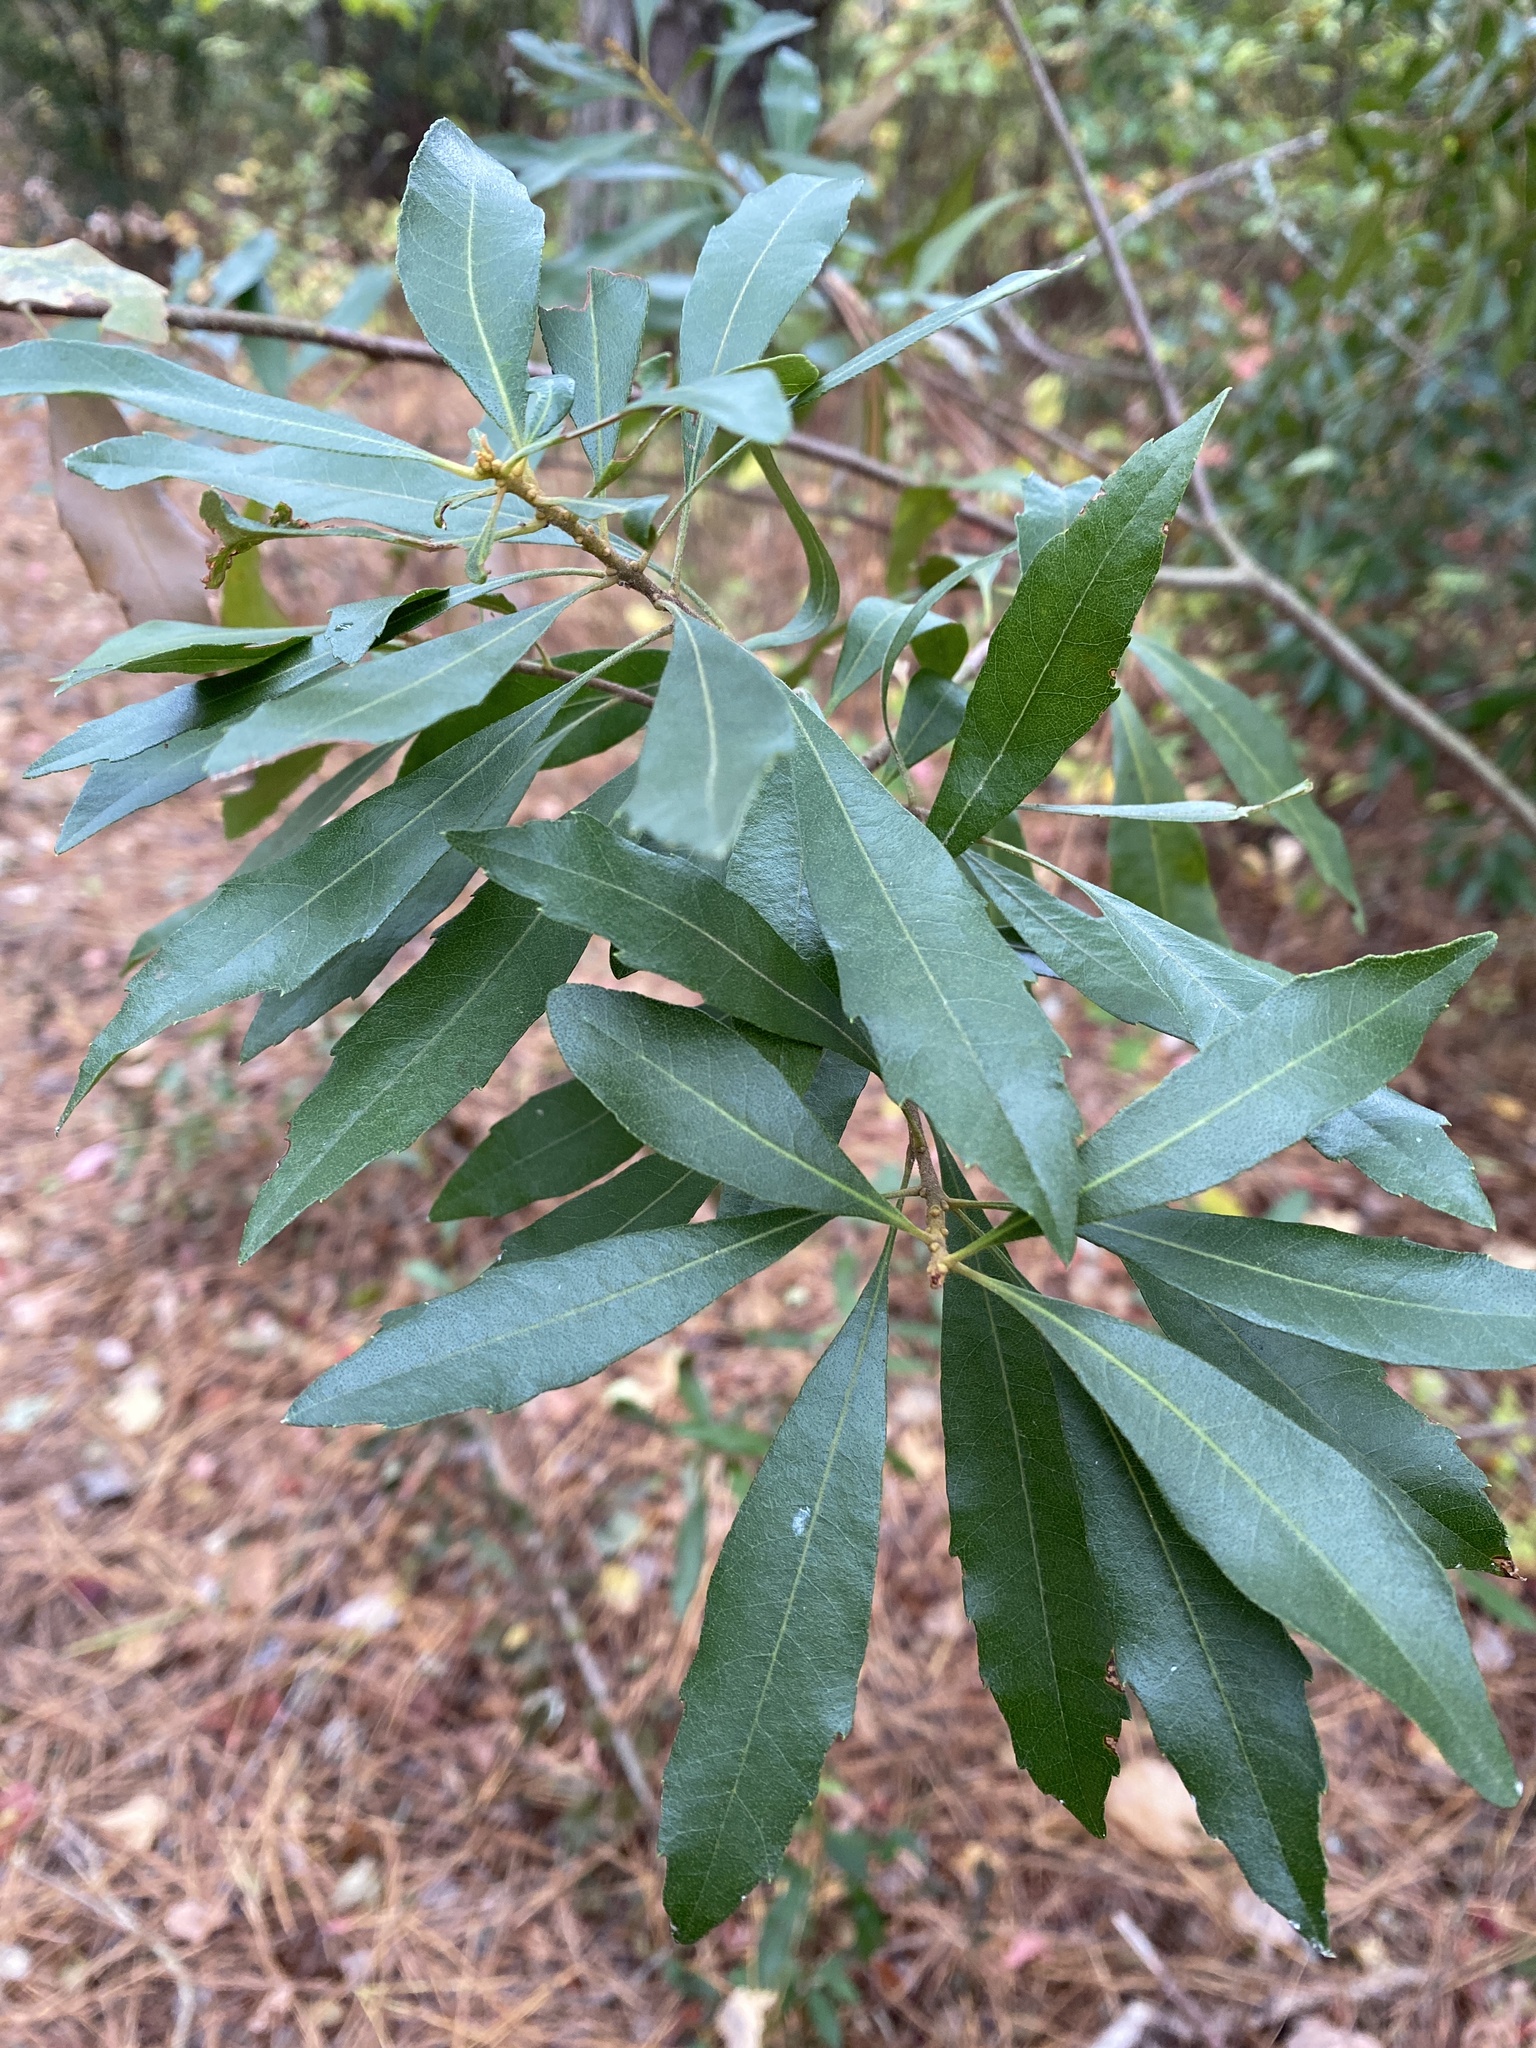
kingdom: Plantae
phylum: Tracheophyta
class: Magnoliopsida
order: Fagales
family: Myricaceae
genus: Morella
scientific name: Morella cerifera
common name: Wax myrtle
